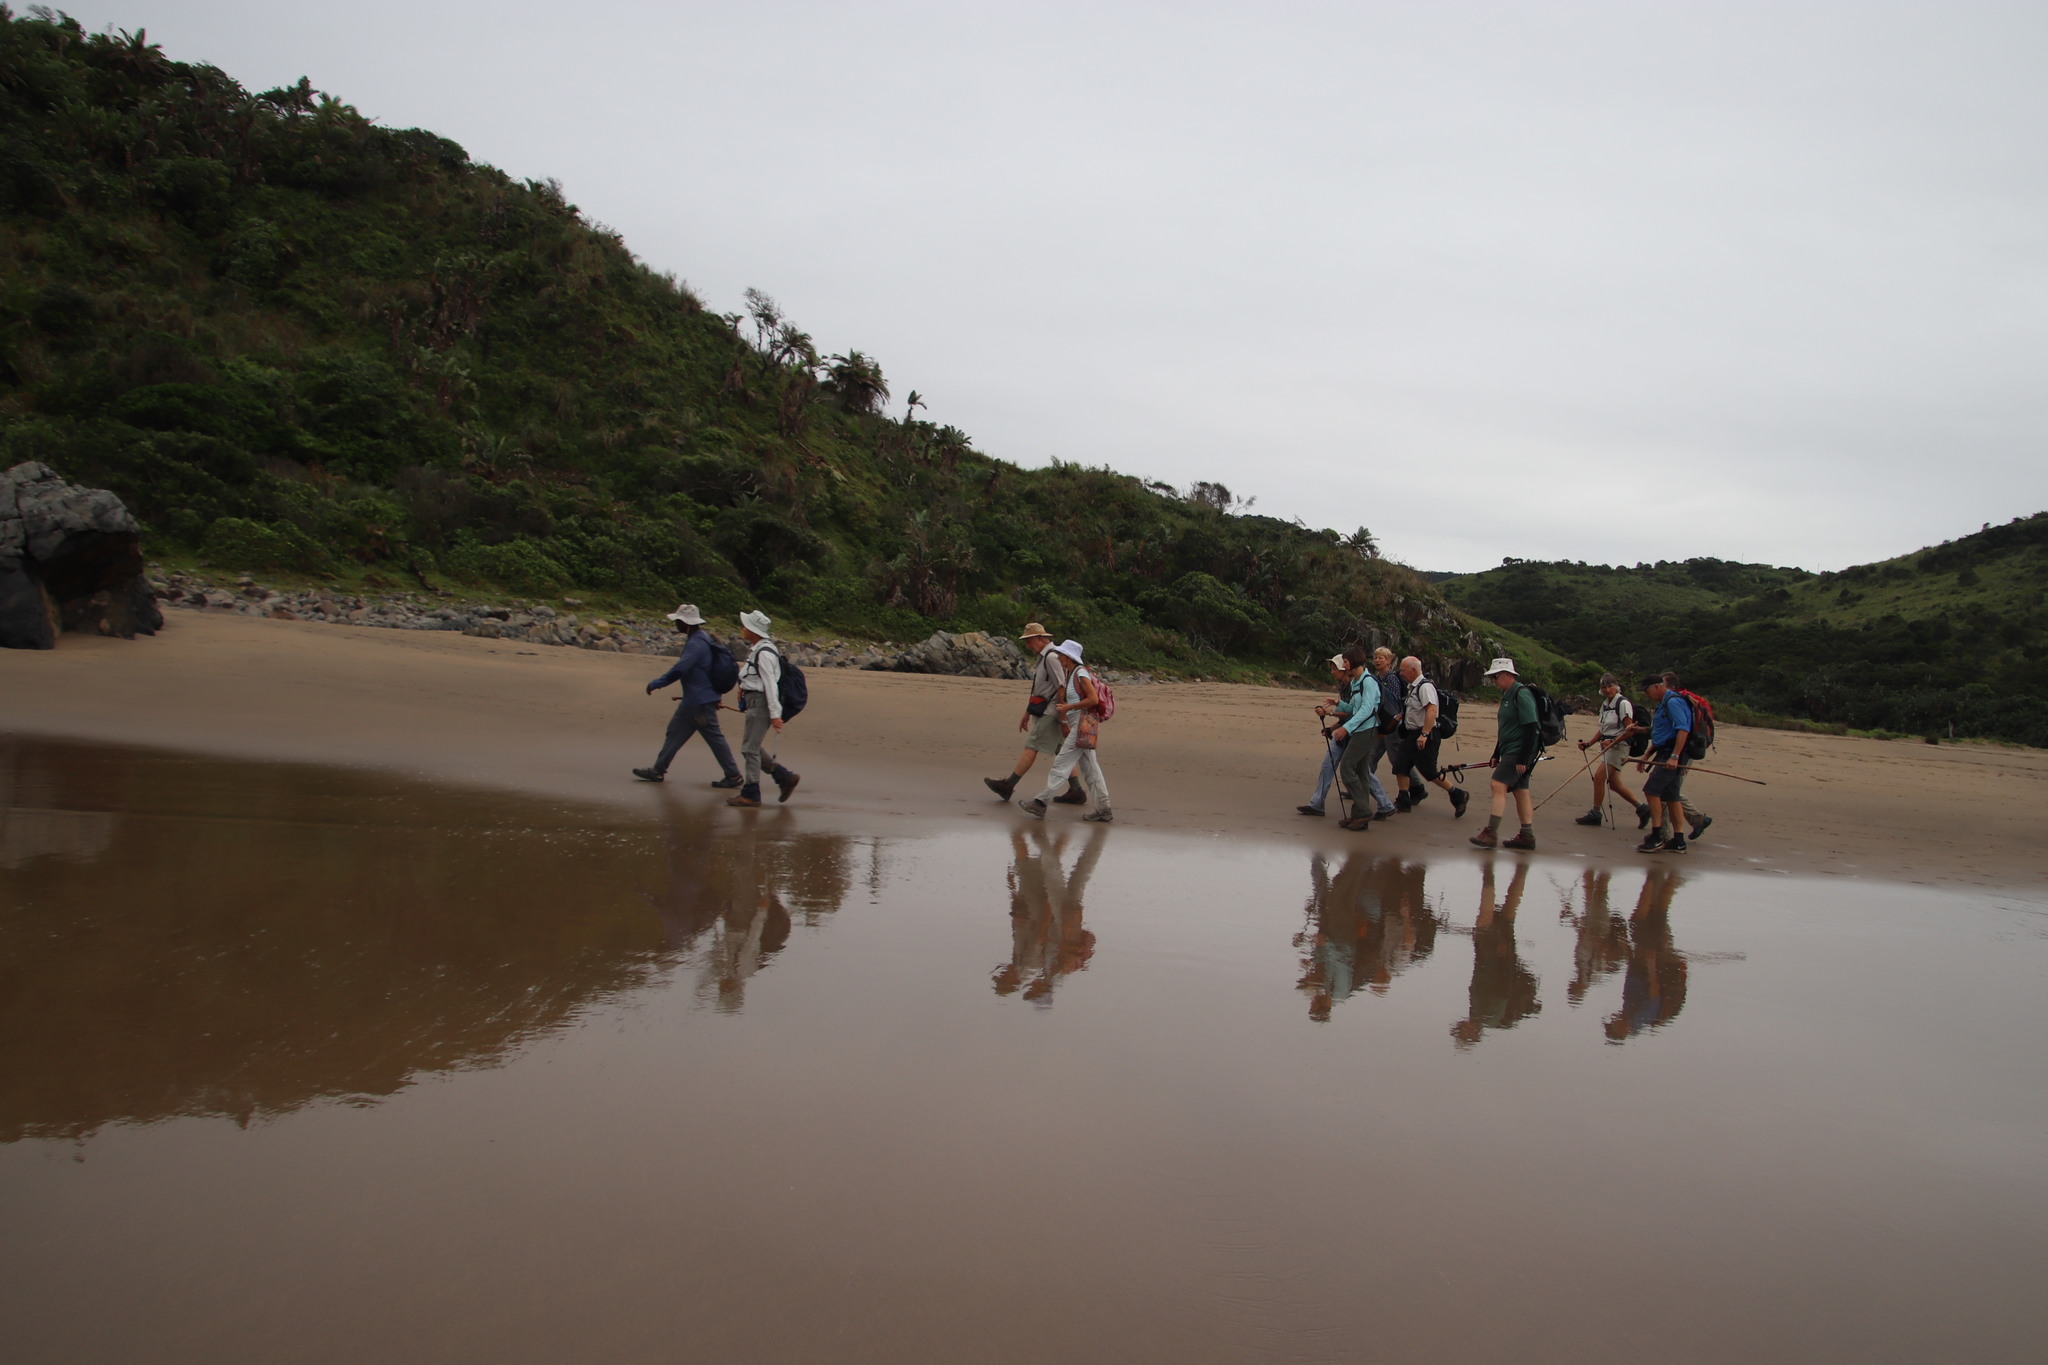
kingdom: Plantae
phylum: Tracheophyta
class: Liliopsida
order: Zingiberales
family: Strelitziaceae
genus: Strelitzia
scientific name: Strelitzia nicolai
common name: Bird-of-paradise tree
